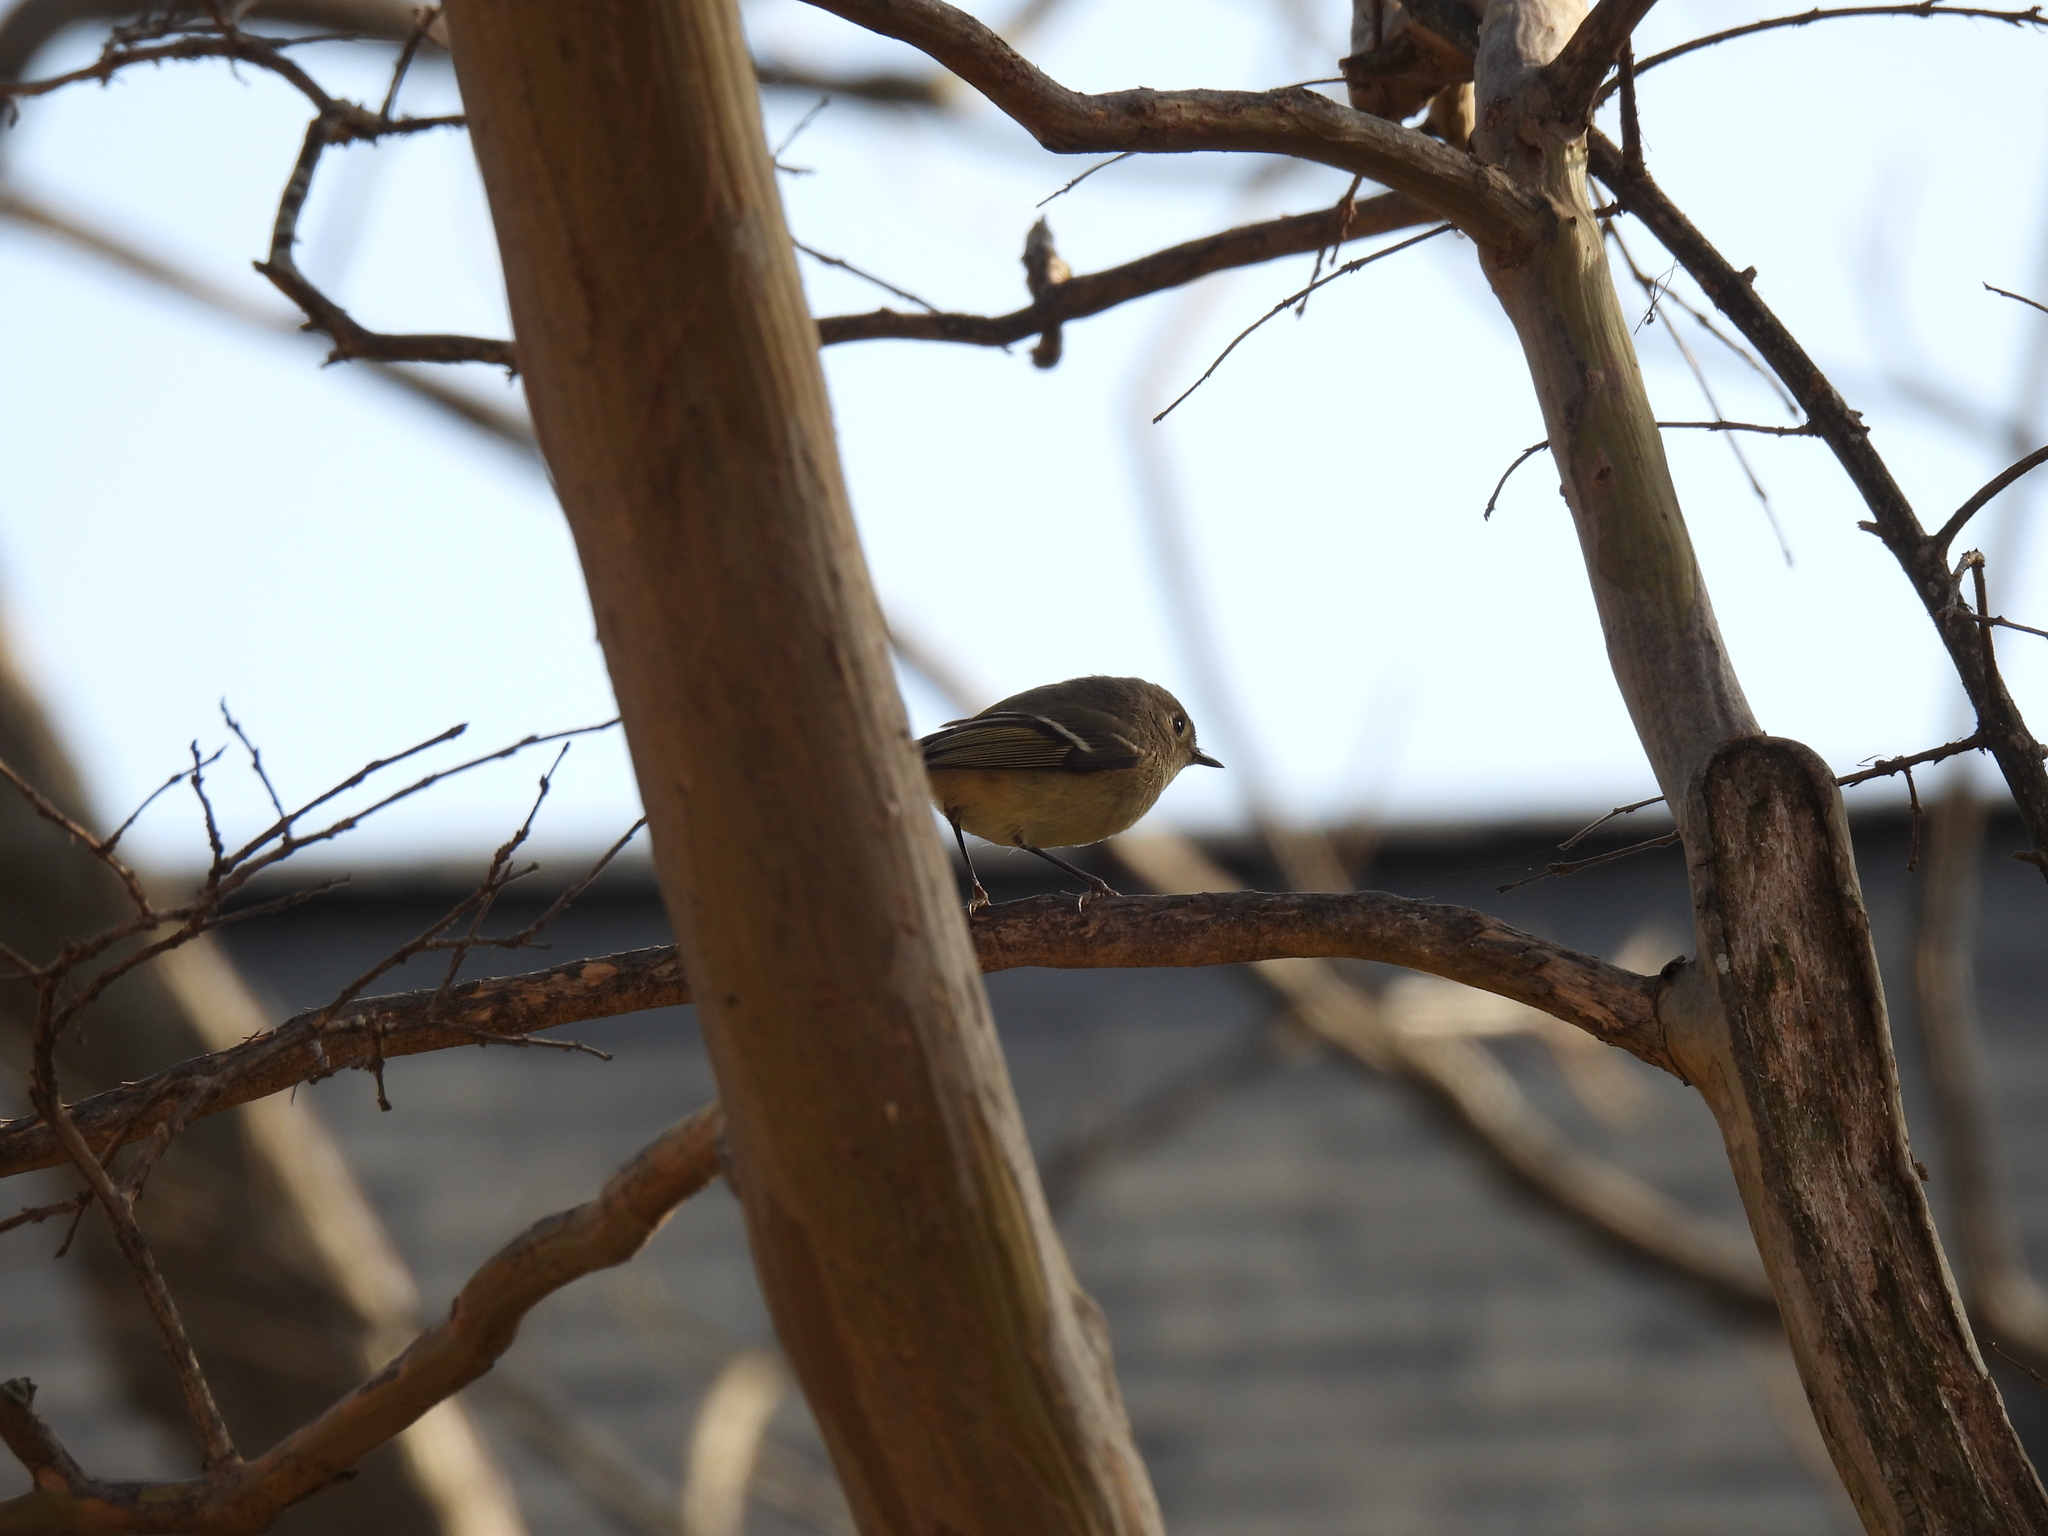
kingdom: Animalia
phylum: Chordata
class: Aves
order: Passeriformes
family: Regulidae
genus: Regulus
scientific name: Regulus calendula
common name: Ruby-crowned kinglet
